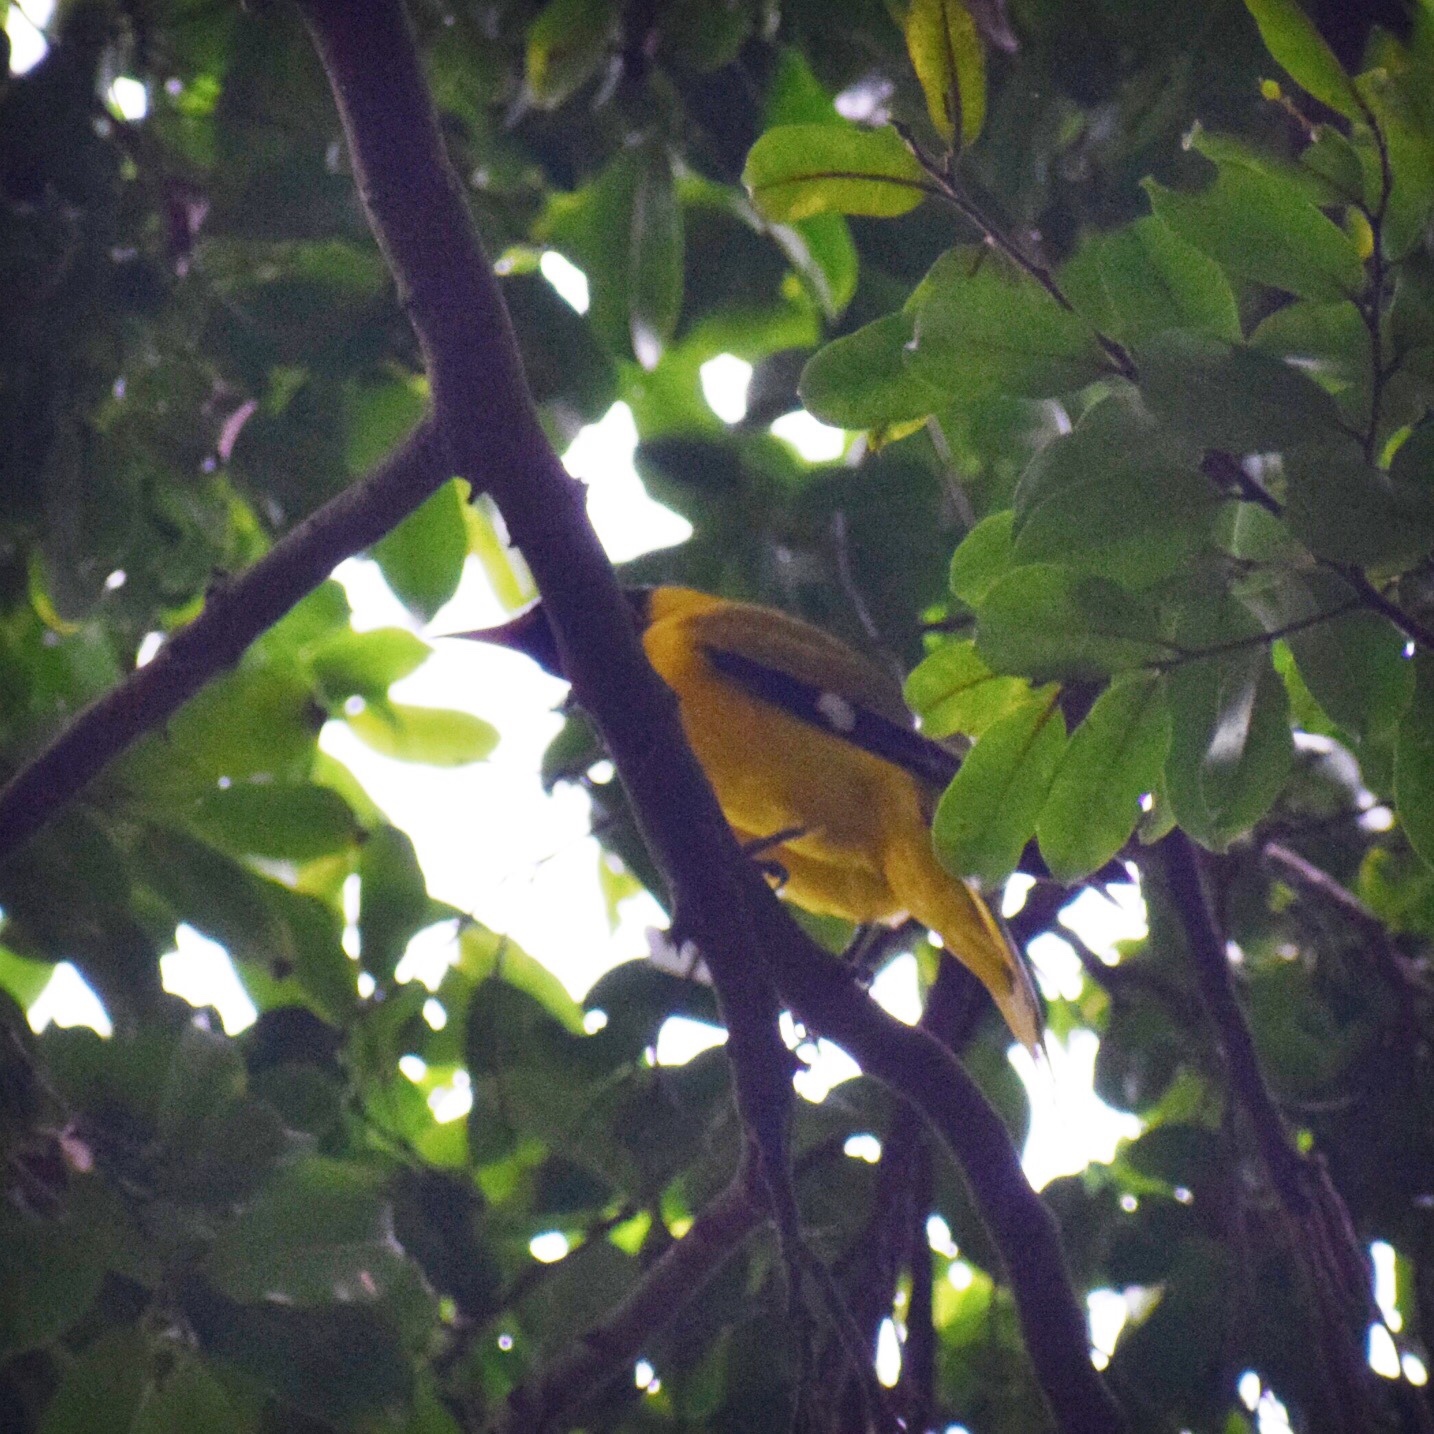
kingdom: Animalia
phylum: Chordata
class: Aves
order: Passeriformes
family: Oriolidae
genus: Oriolus
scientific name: Oriolus larvatus
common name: Black-headed oriole
